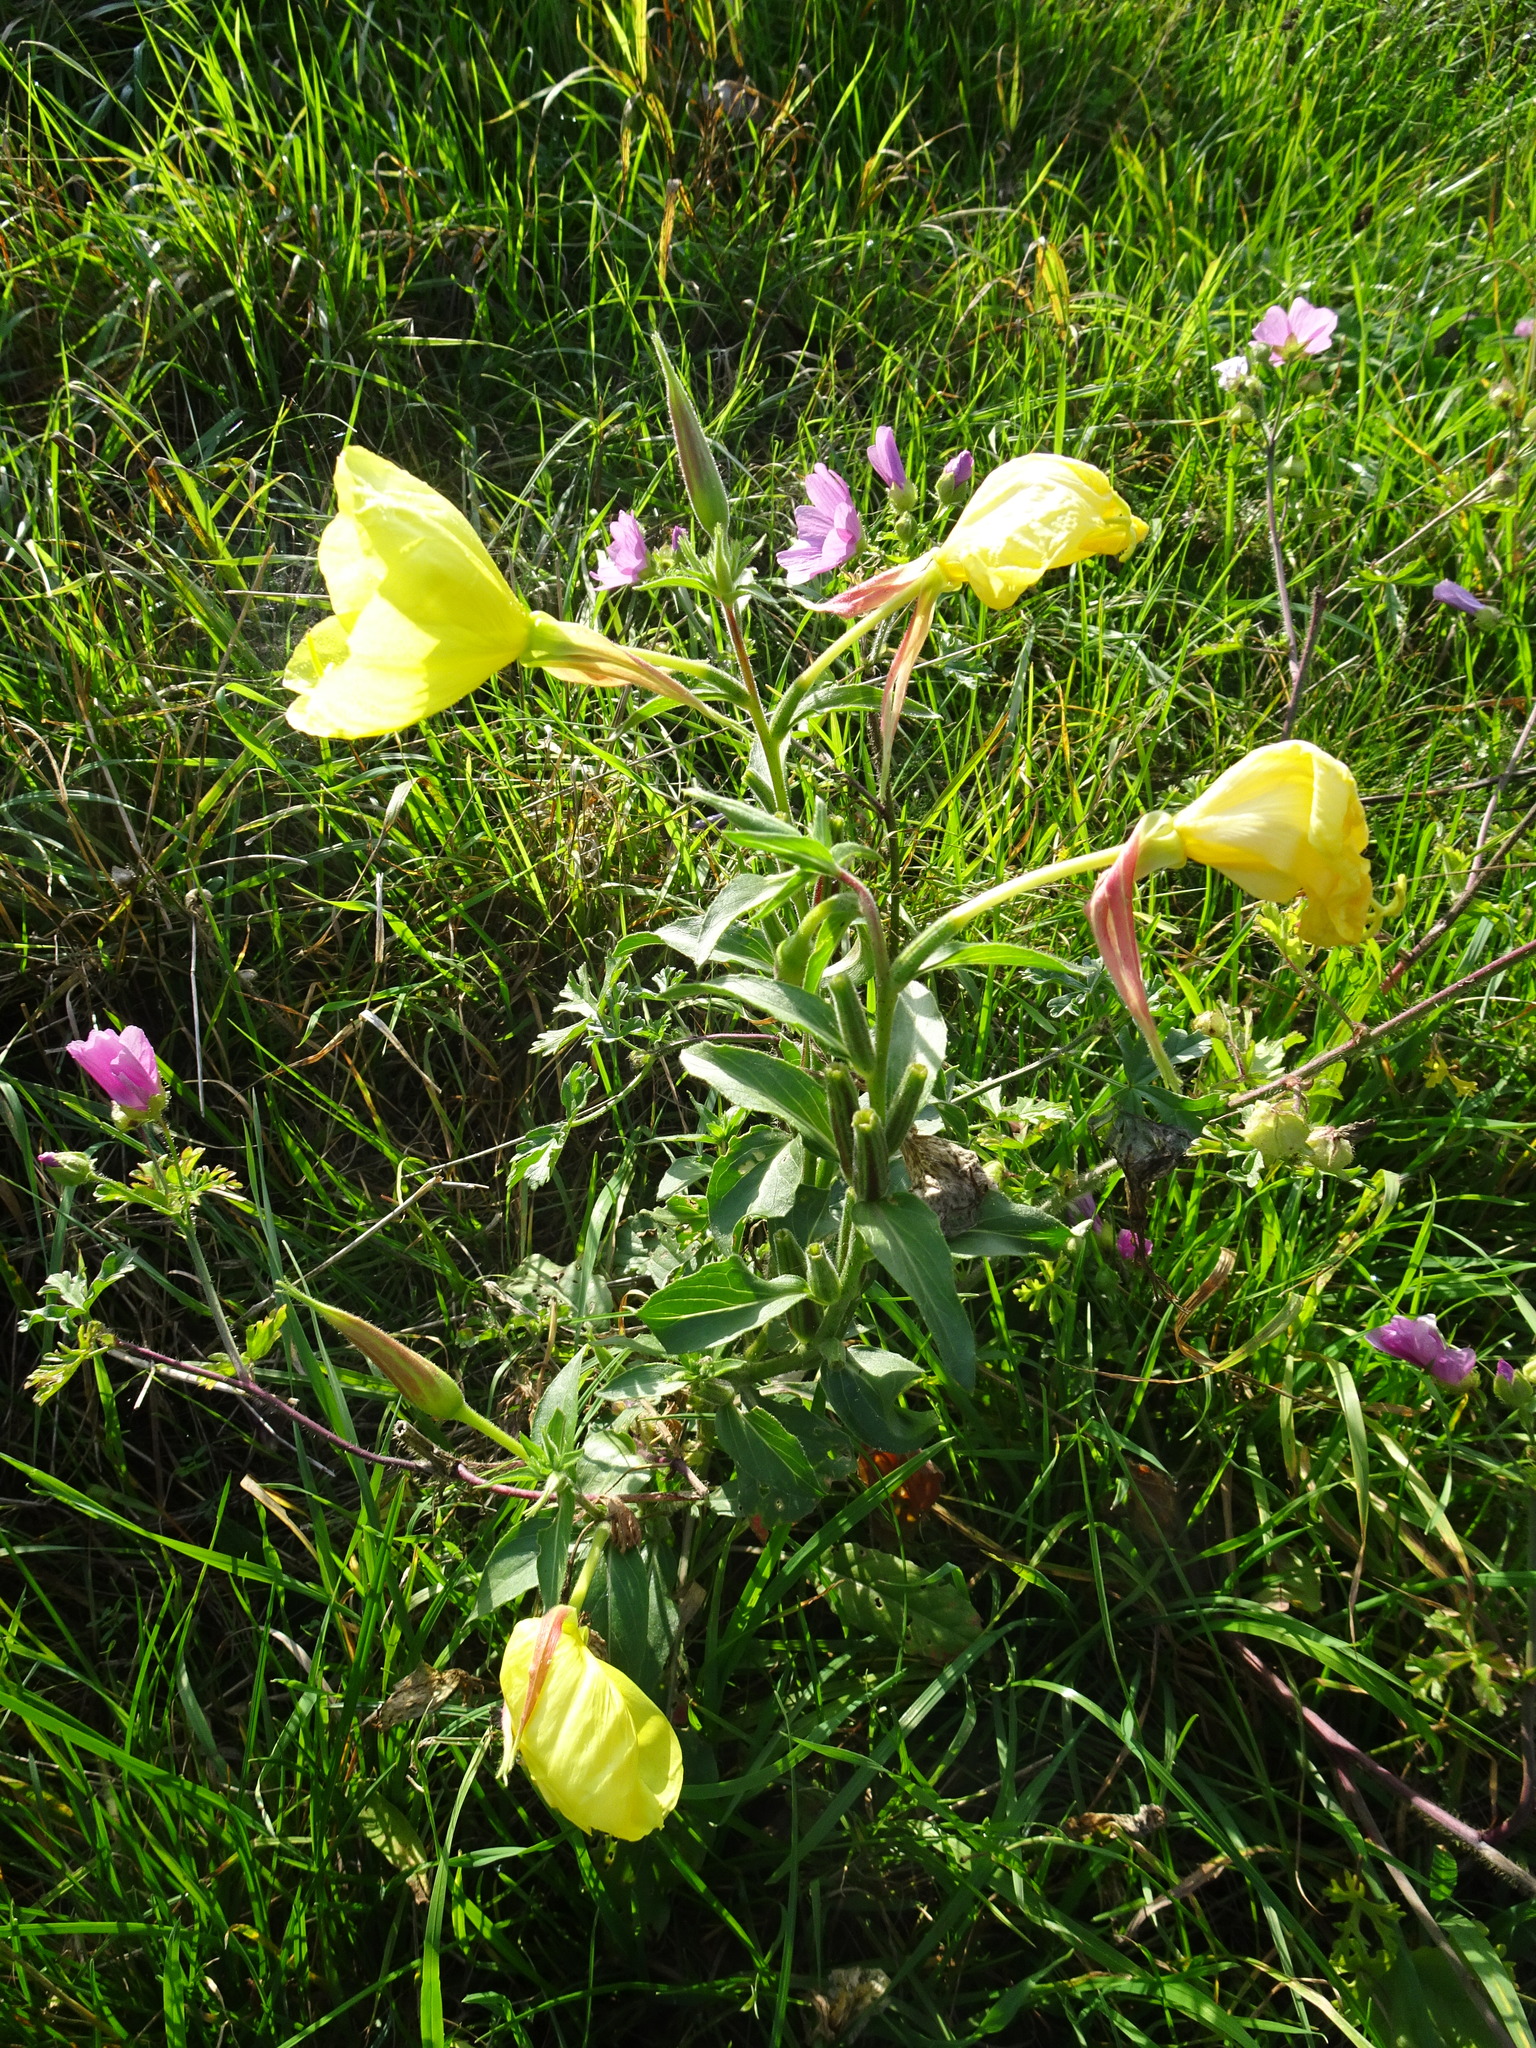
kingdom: Plantae
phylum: Tracheophyta
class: Magnoliopsida
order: Myrtales
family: Onagraceae
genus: Oenothera
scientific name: Oenothera glazioviana
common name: Large-flowered evening-primrose
